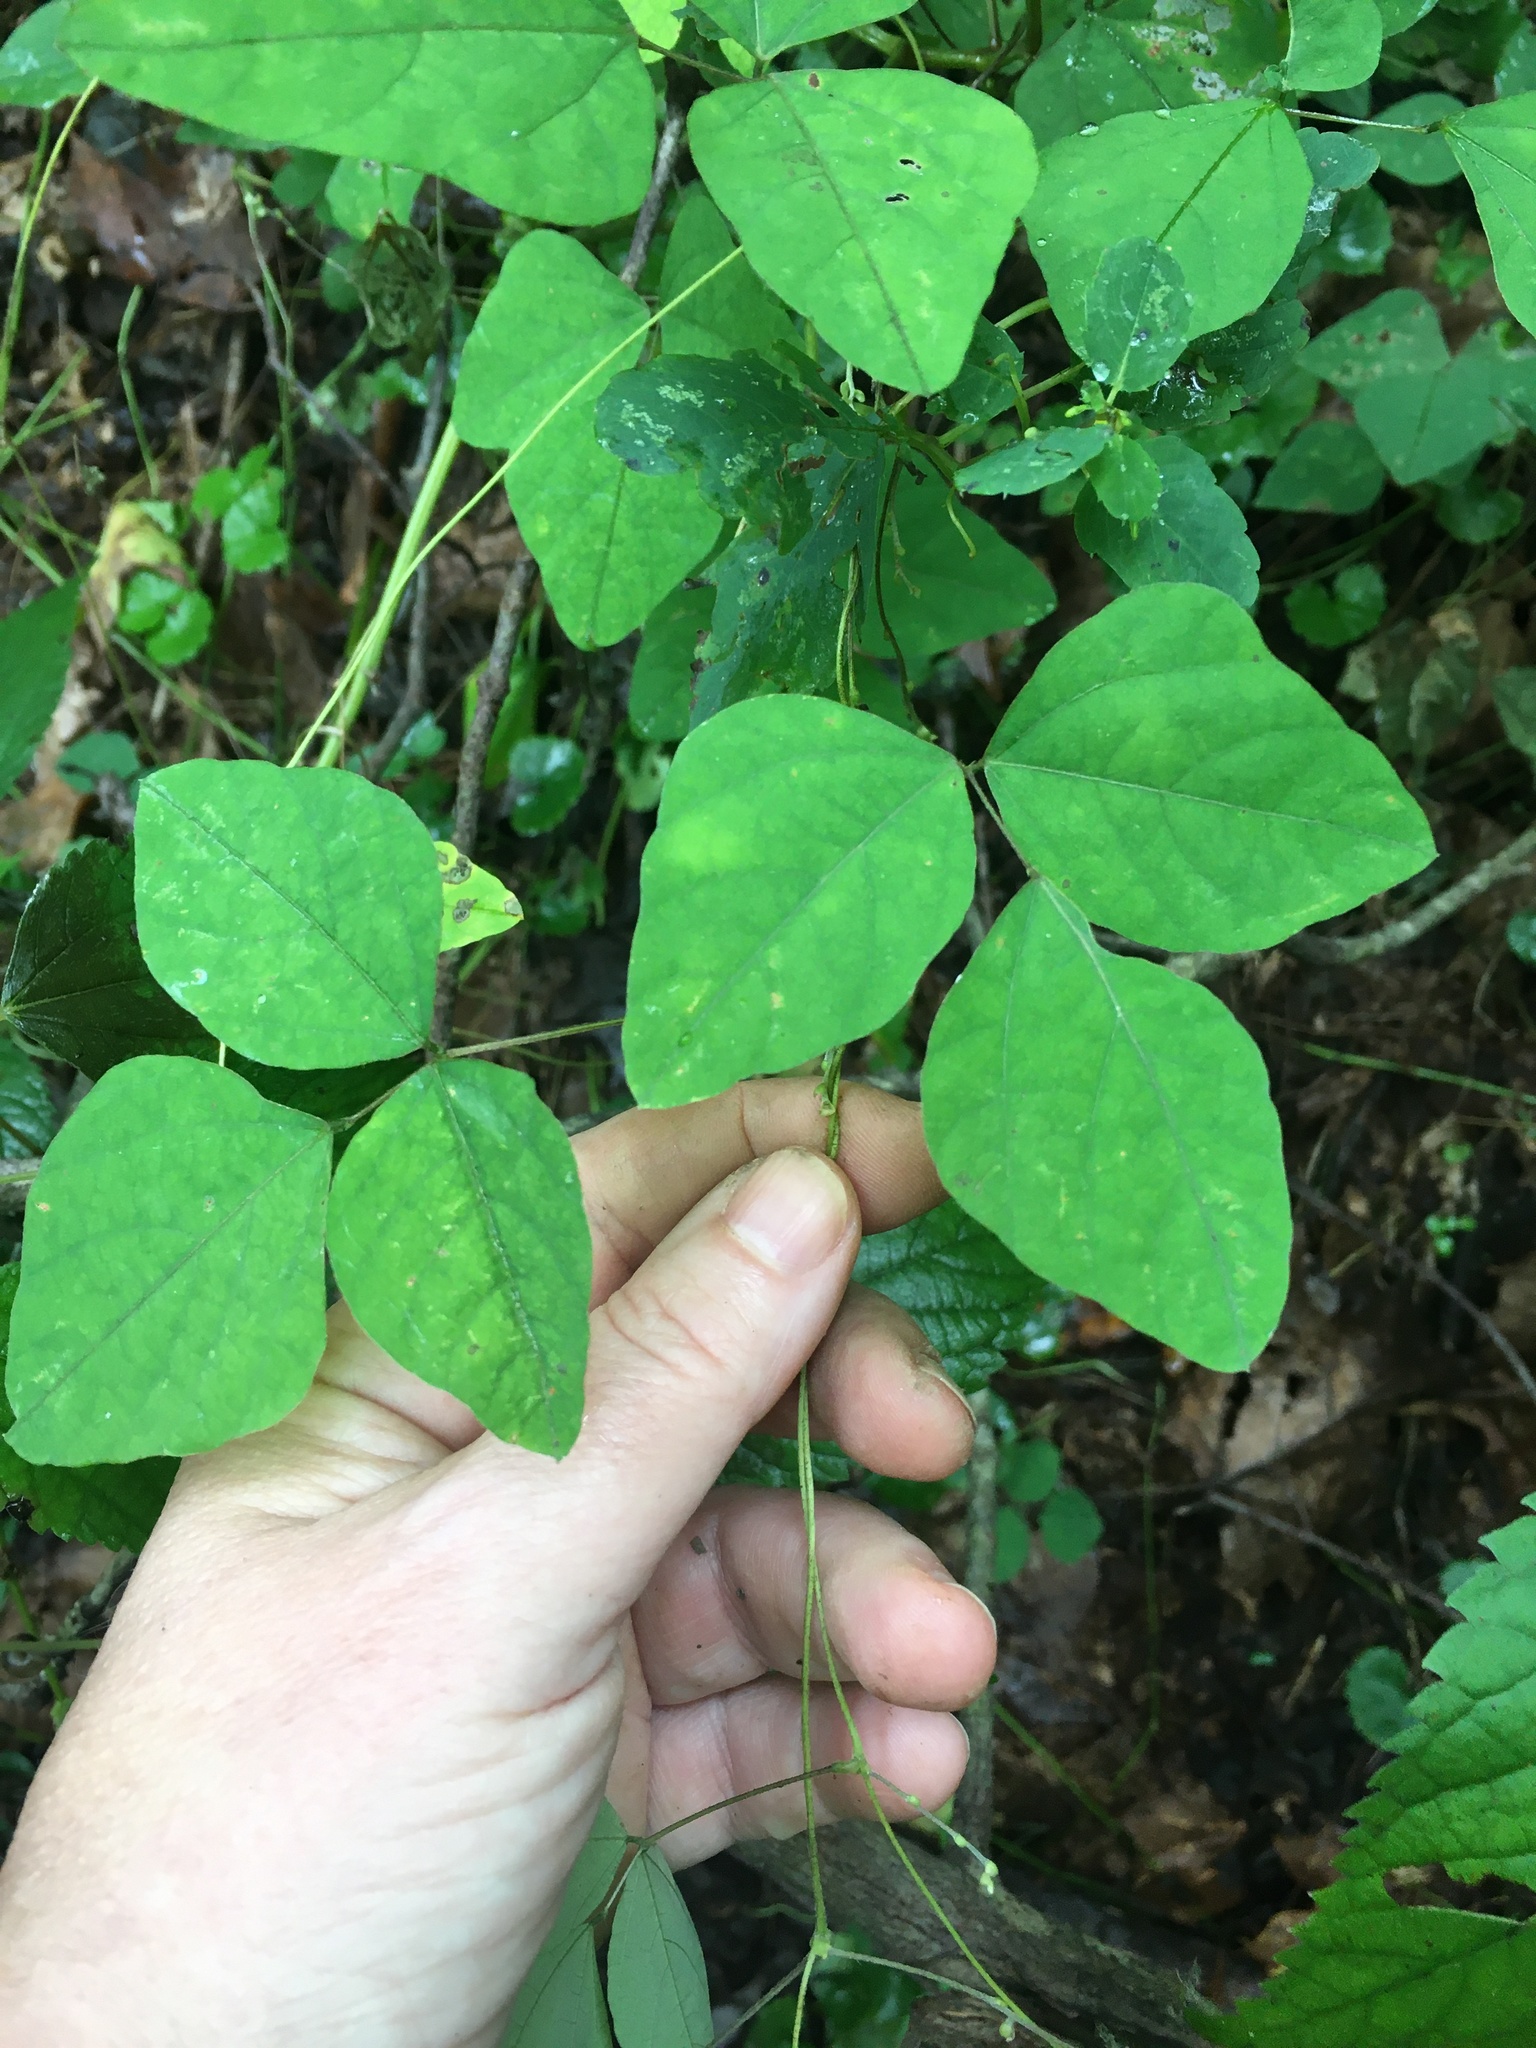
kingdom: Plantae
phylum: Tracheophyta
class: Magnoliopsida
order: Fabales
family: Fabaceae
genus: Amphicarpaea
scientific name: Amphicarpaea bracteata
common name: American hog peanut
